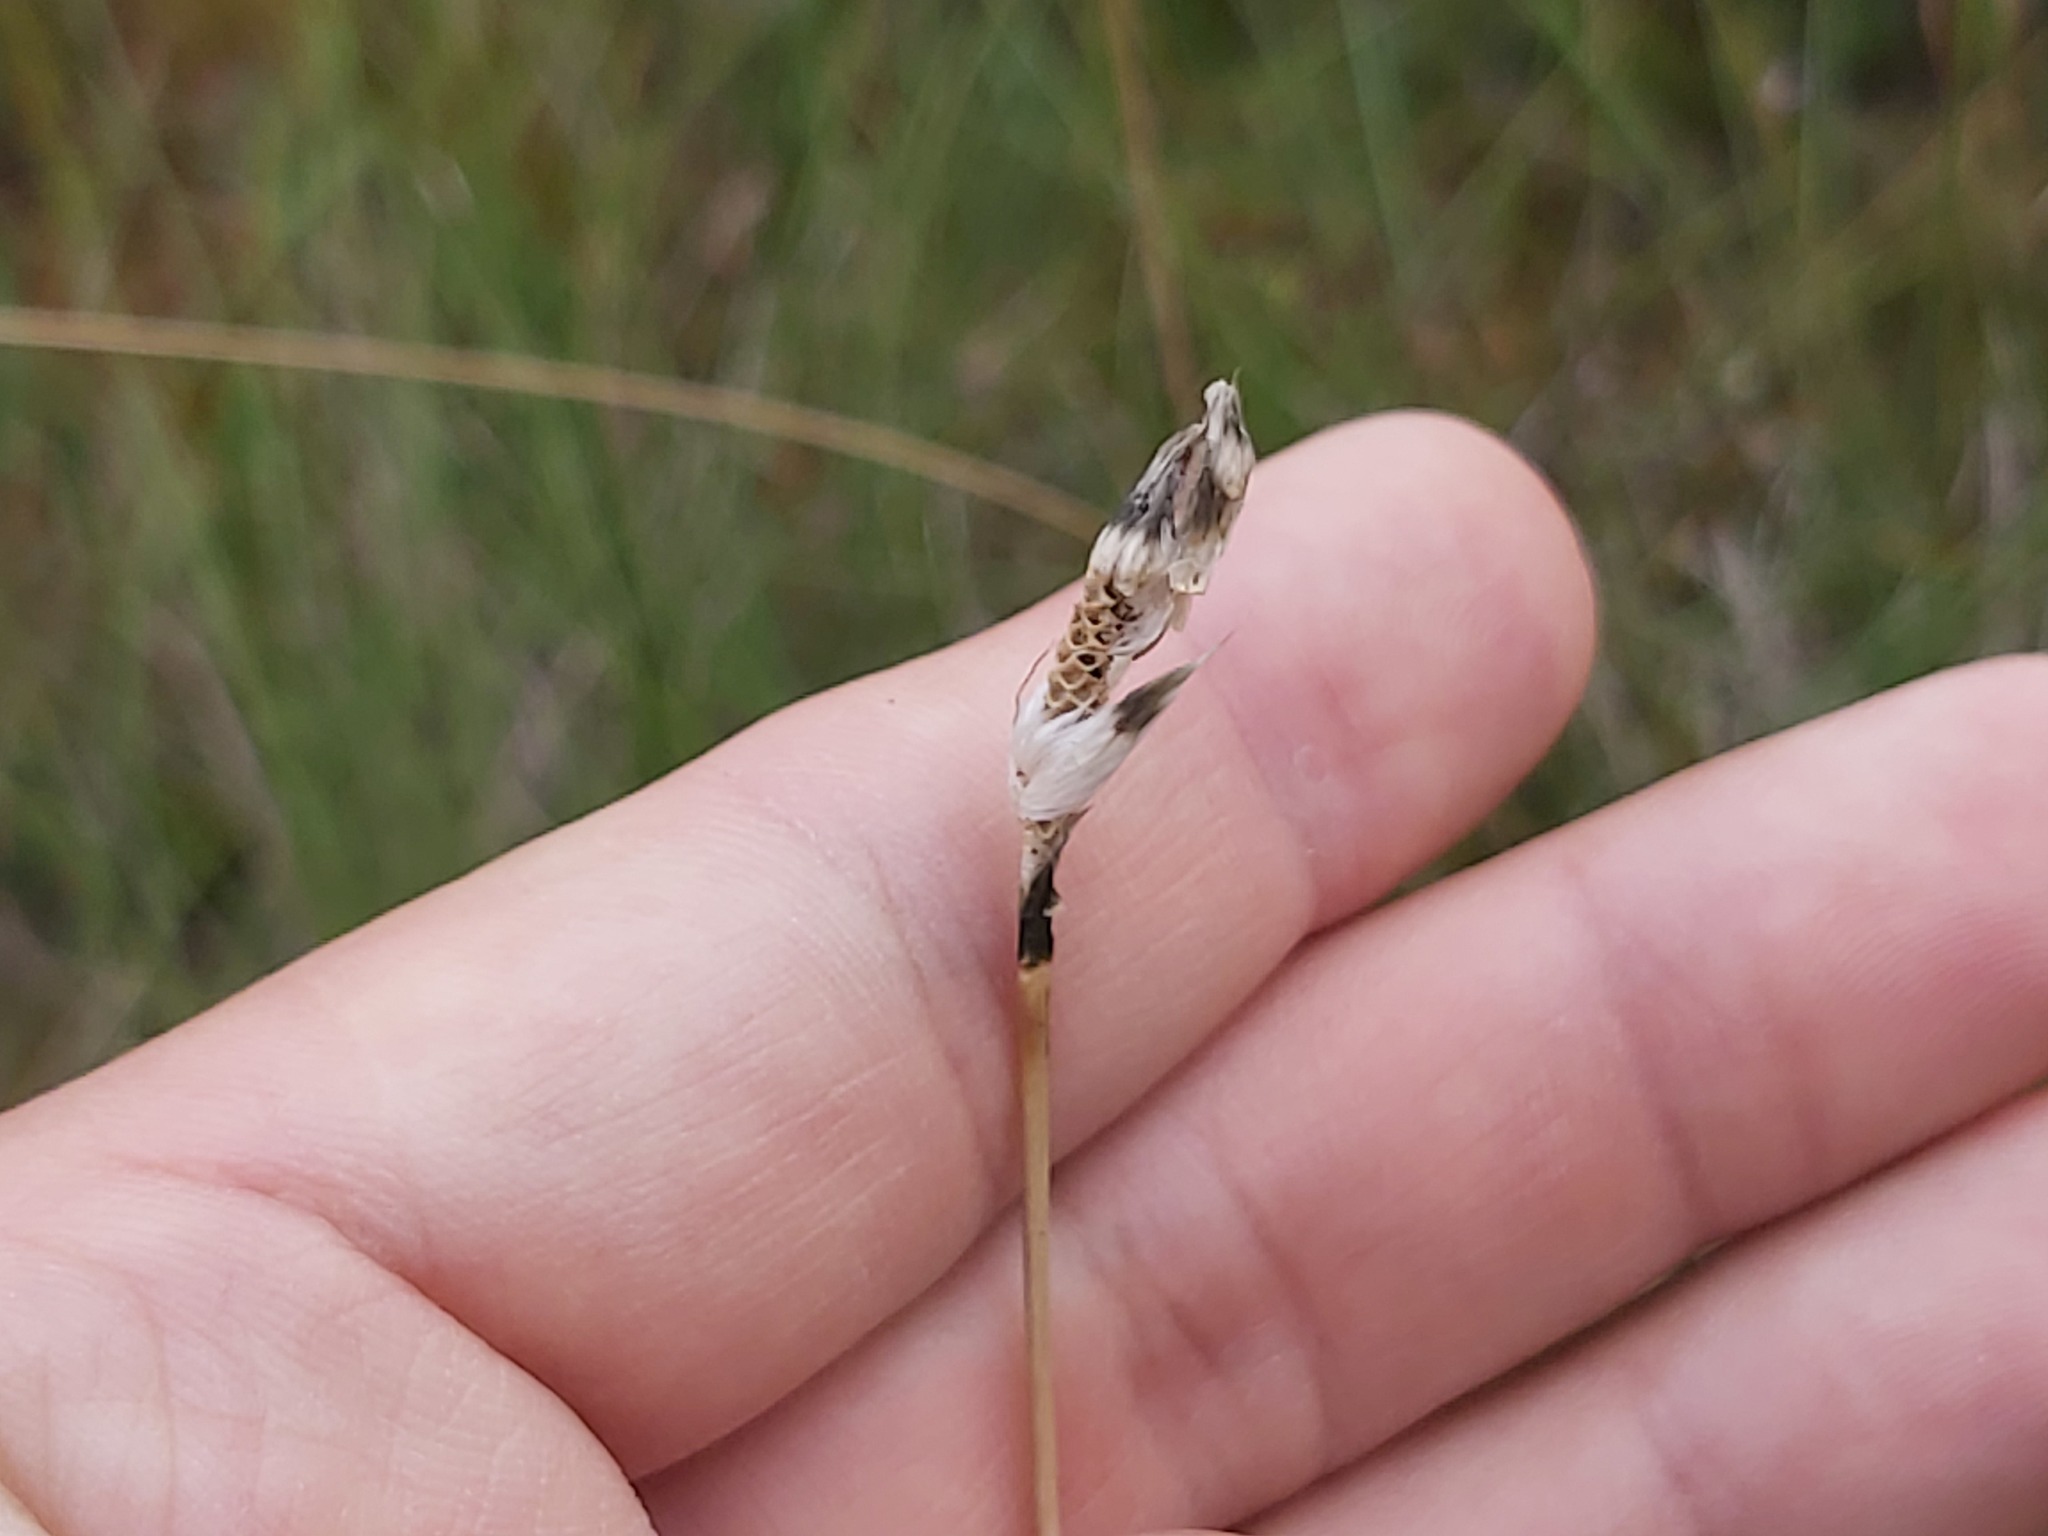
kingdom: Plantae
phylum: Tracheophyta
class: Liliopsida
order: Poales
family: Cyperaceae
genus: Eriophorum
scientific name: Eriophorum vaginatum
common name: Hare's-tail cottongrass
